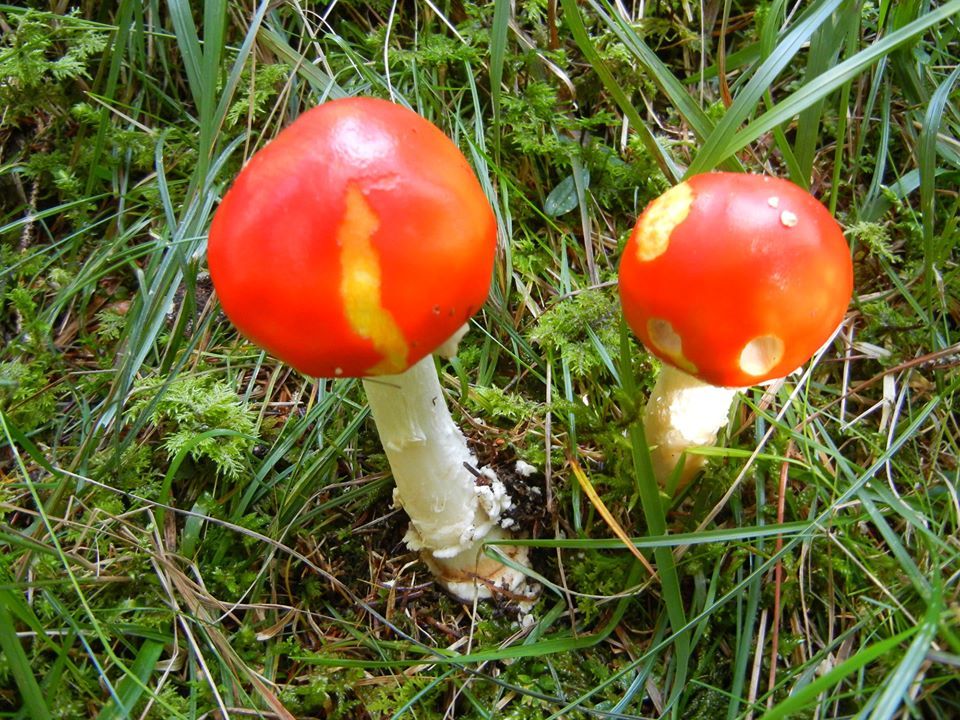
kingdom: Fungi
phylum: Basidiomycota
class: Agaricomycetes
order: Agaricales
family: Amanitaceae
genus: Amanita
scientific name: Amanita muscaria
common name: Fly agaric
